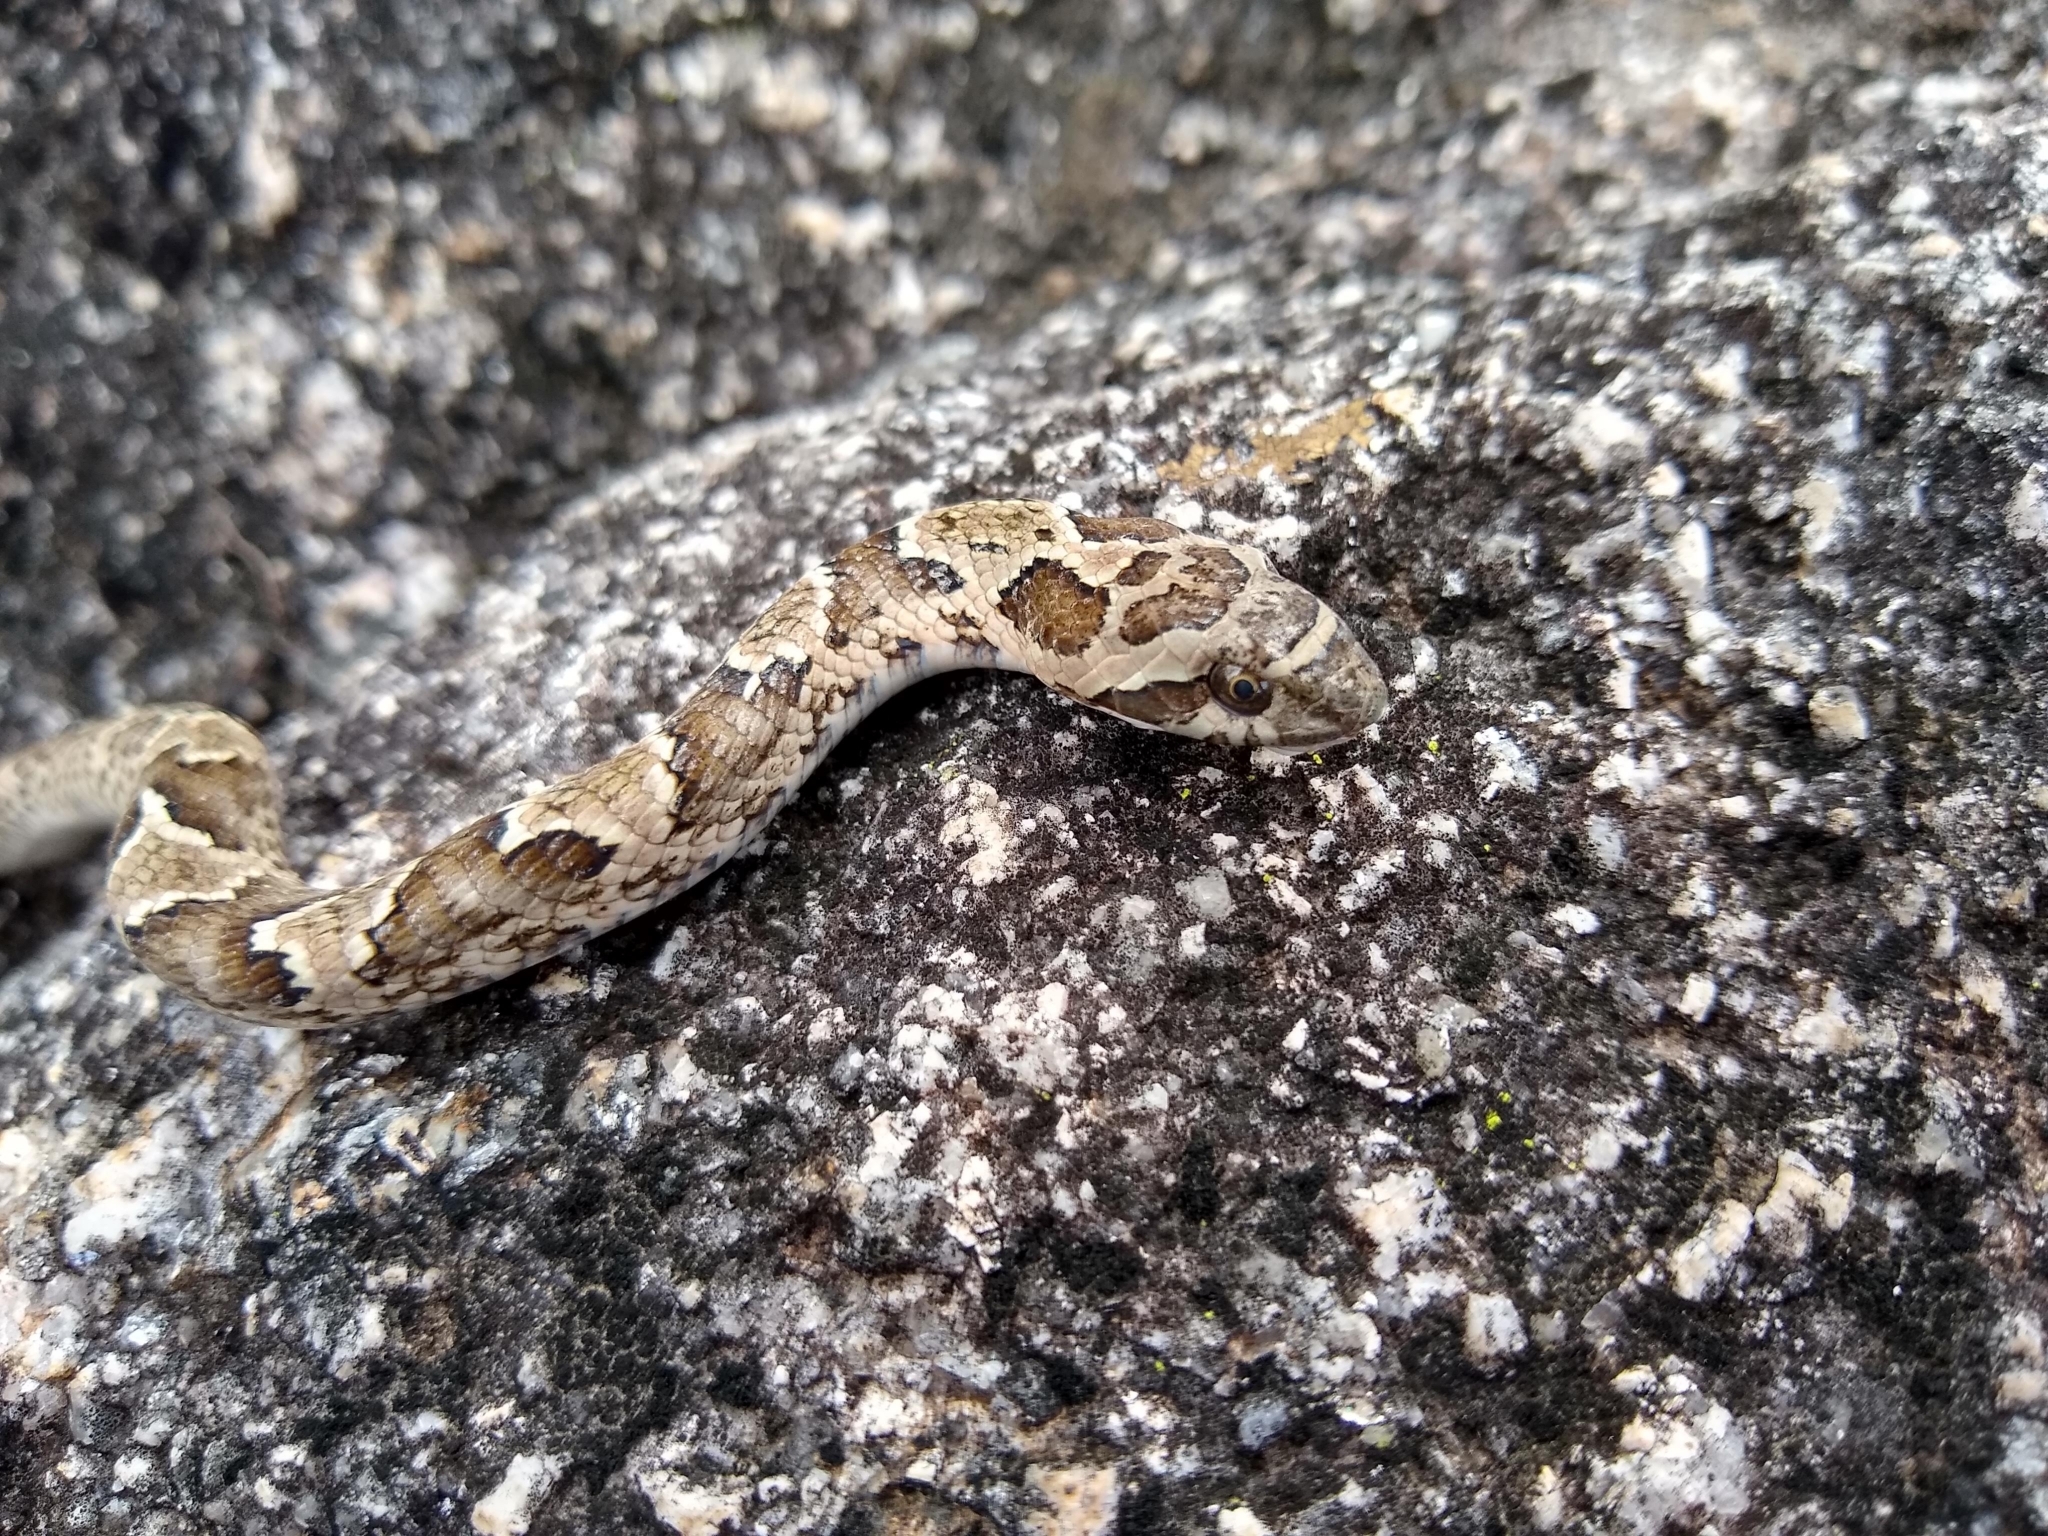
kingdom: Animalia
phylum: Chordata
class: Squamata
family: Colubridae
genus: Xenodon
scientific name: Xenodon merremii
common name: Wagler's snake
